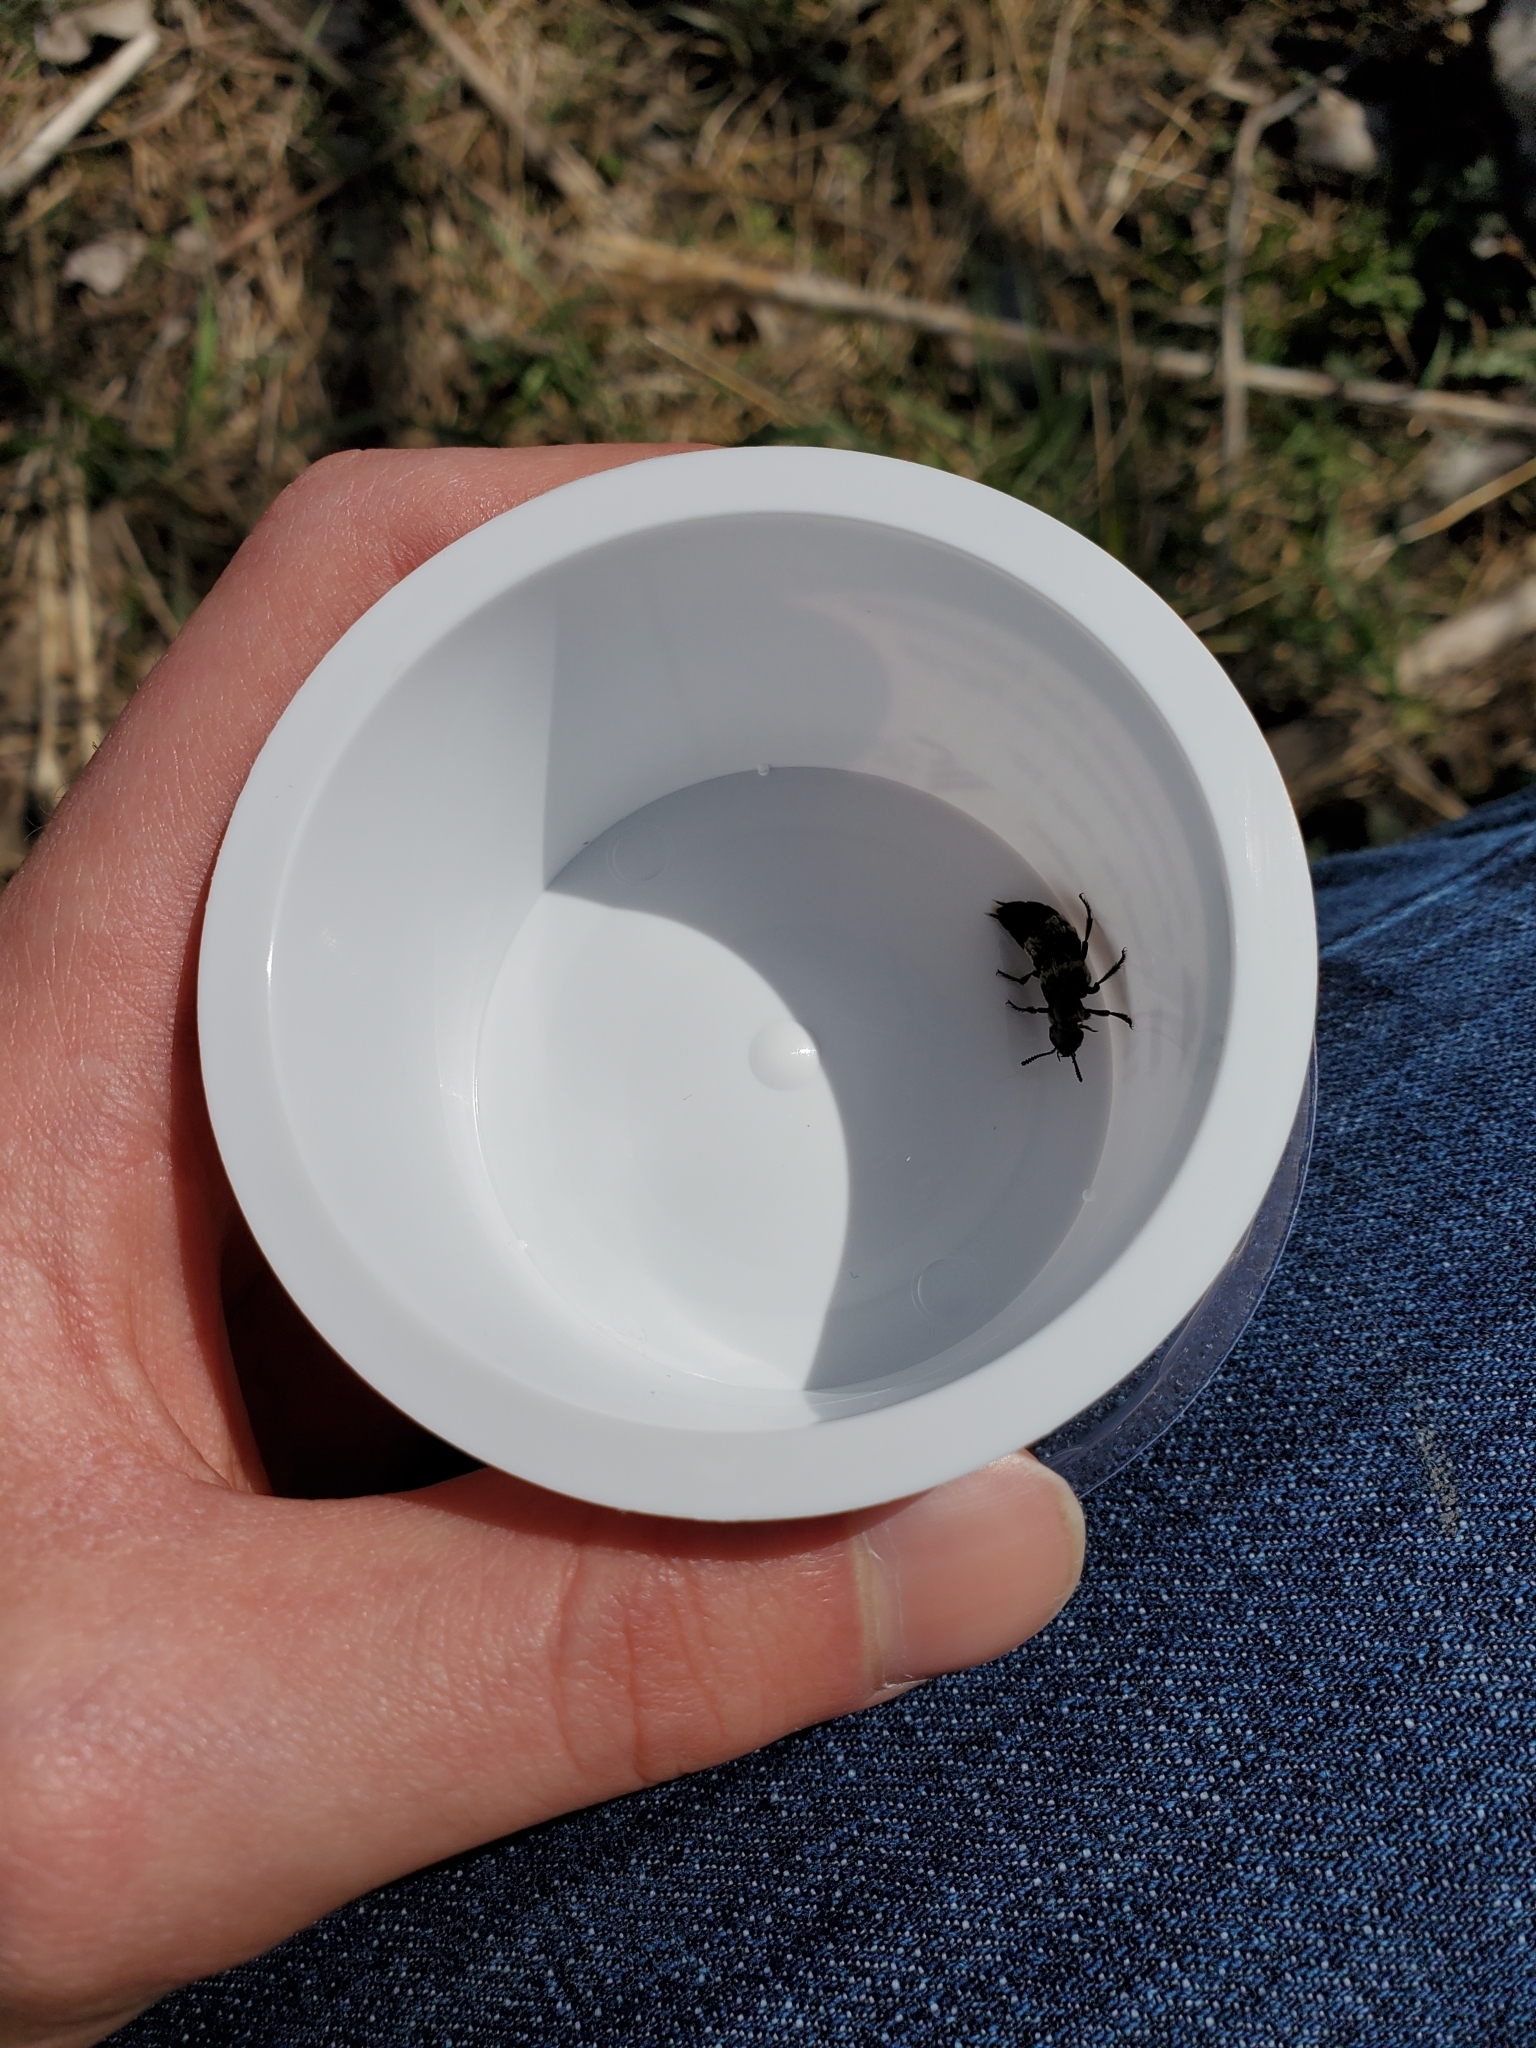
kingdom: Animalia
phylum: Arthropoda
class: Insecta
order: Coleoptera
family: Staphylinidae
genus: Creophilus
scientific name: Creophilus maxillosus
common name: Hairy rove beetle
